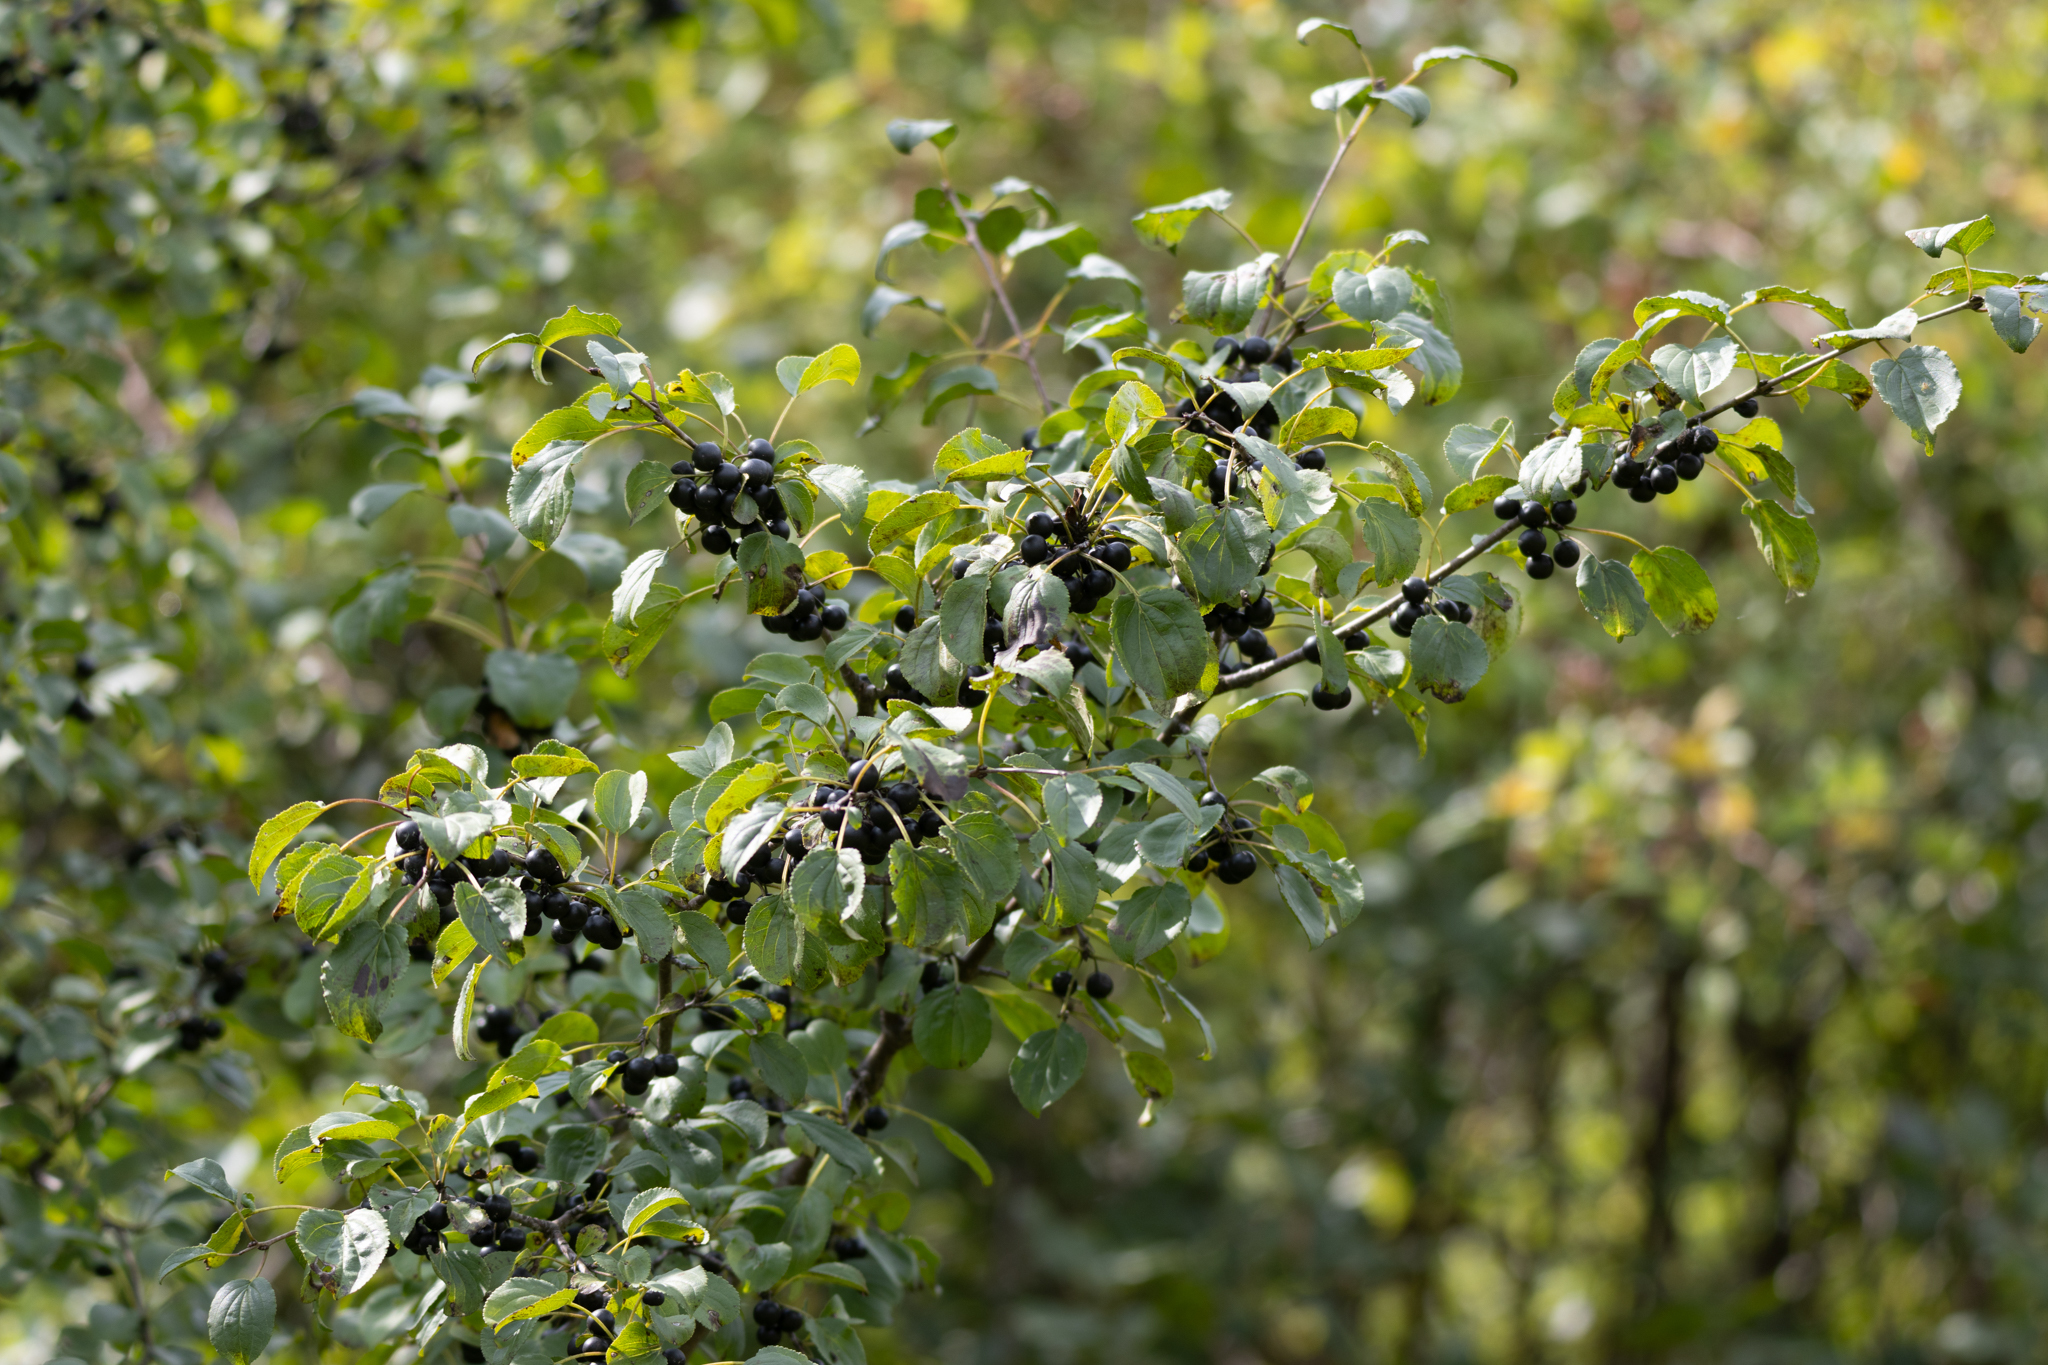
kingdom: Plantae
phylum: Tracheophyta
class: Magnoliopsida
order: Rosales
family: Rhamnaceae
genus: Rhamnus
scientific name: Rhamnus cathartica
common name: Common buckthorn
